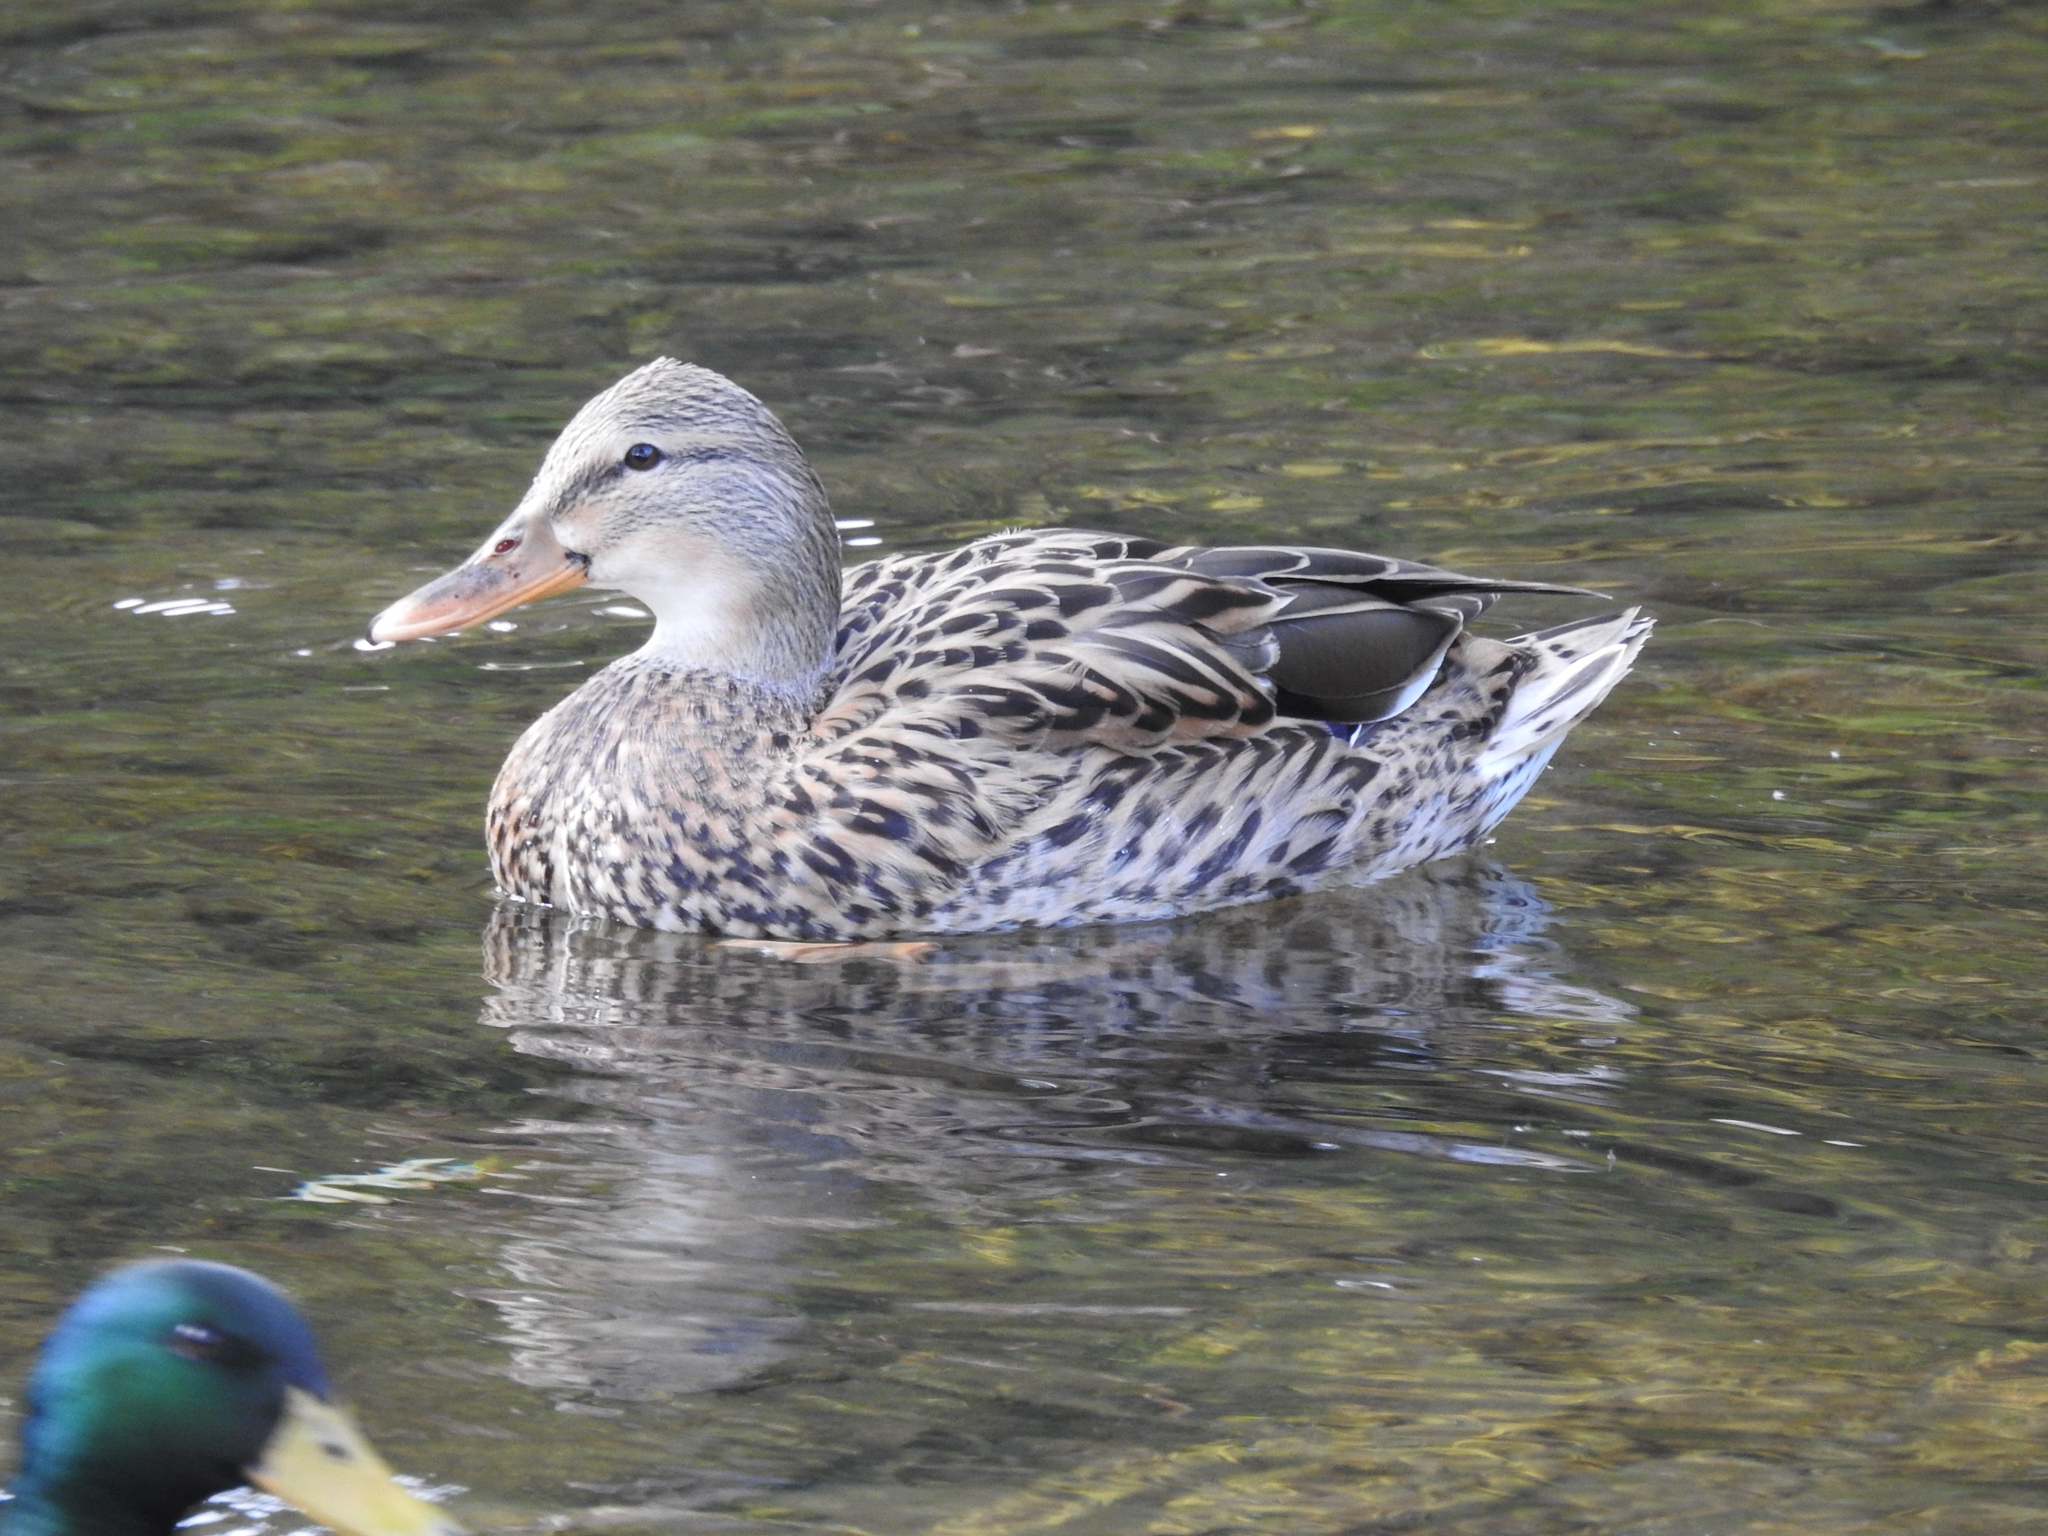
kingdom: Animalia
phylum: Chordata
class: Aves
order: Anseriformes
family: Anatidae
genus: Anas
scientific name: Anas platyrhynchos
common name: Mallard
